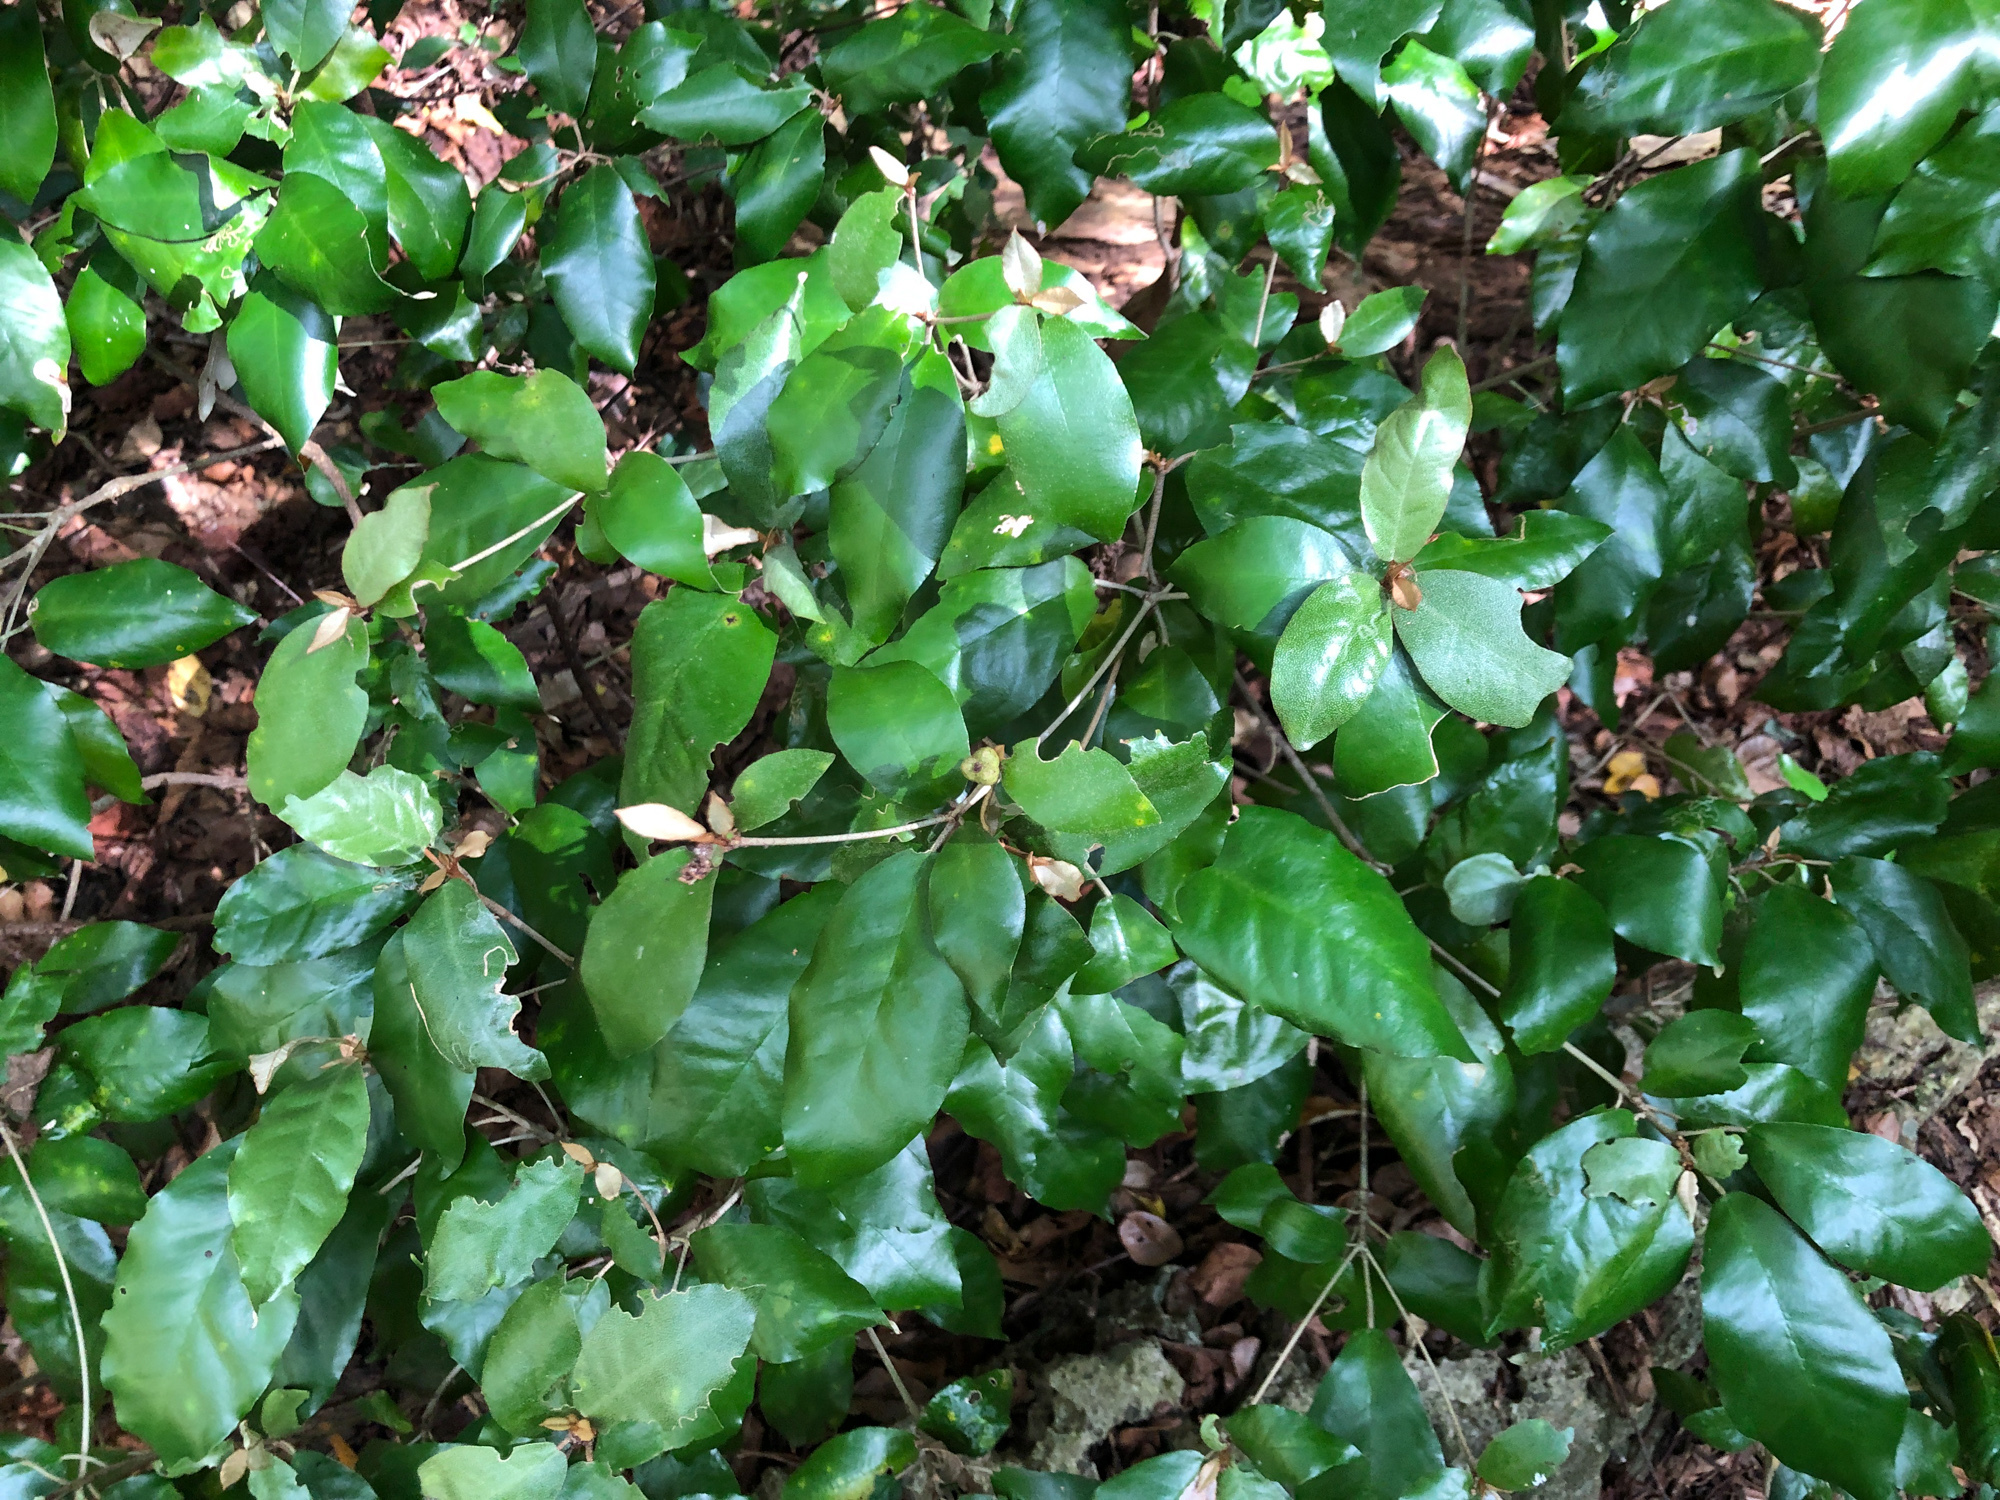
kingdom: Plantae
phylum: Tracheophyta
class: Magnoliopsida
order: Malpighiales
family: Euphorbiaceae
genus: Croton
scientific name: Croton cascarilloides
